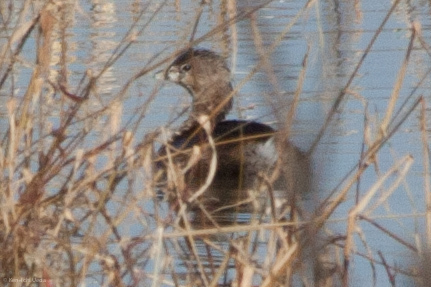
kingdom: Animalia
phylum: Chordata
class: Aves
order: Podicipediformes
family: Podicipedidae
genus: Podilymbus
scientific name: Podilymbus podiceps
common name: Pied-billed grebe
